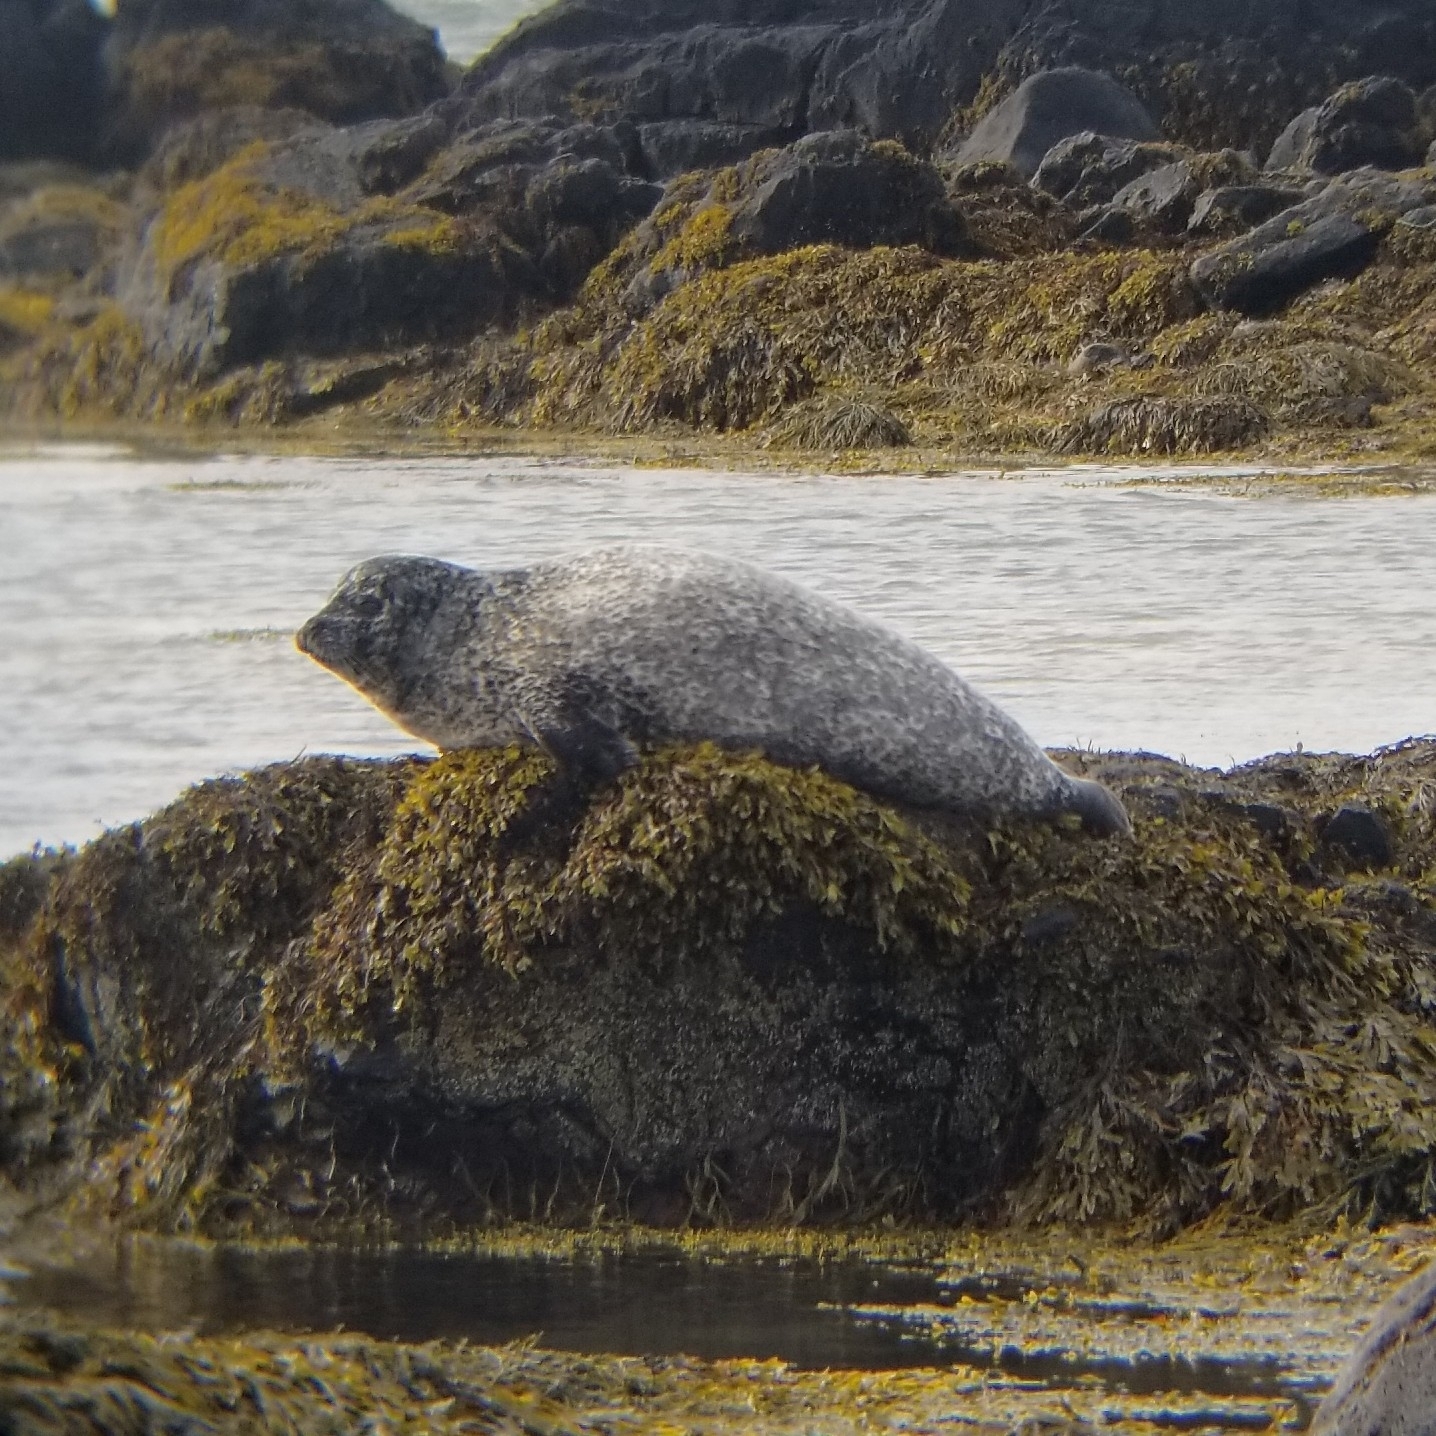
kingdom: Animalia
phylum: Chordata
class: Mammalia
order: Carnivora
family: Phocidae
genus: Phoca
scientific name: Phoca vitulina
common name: Harbor seal
